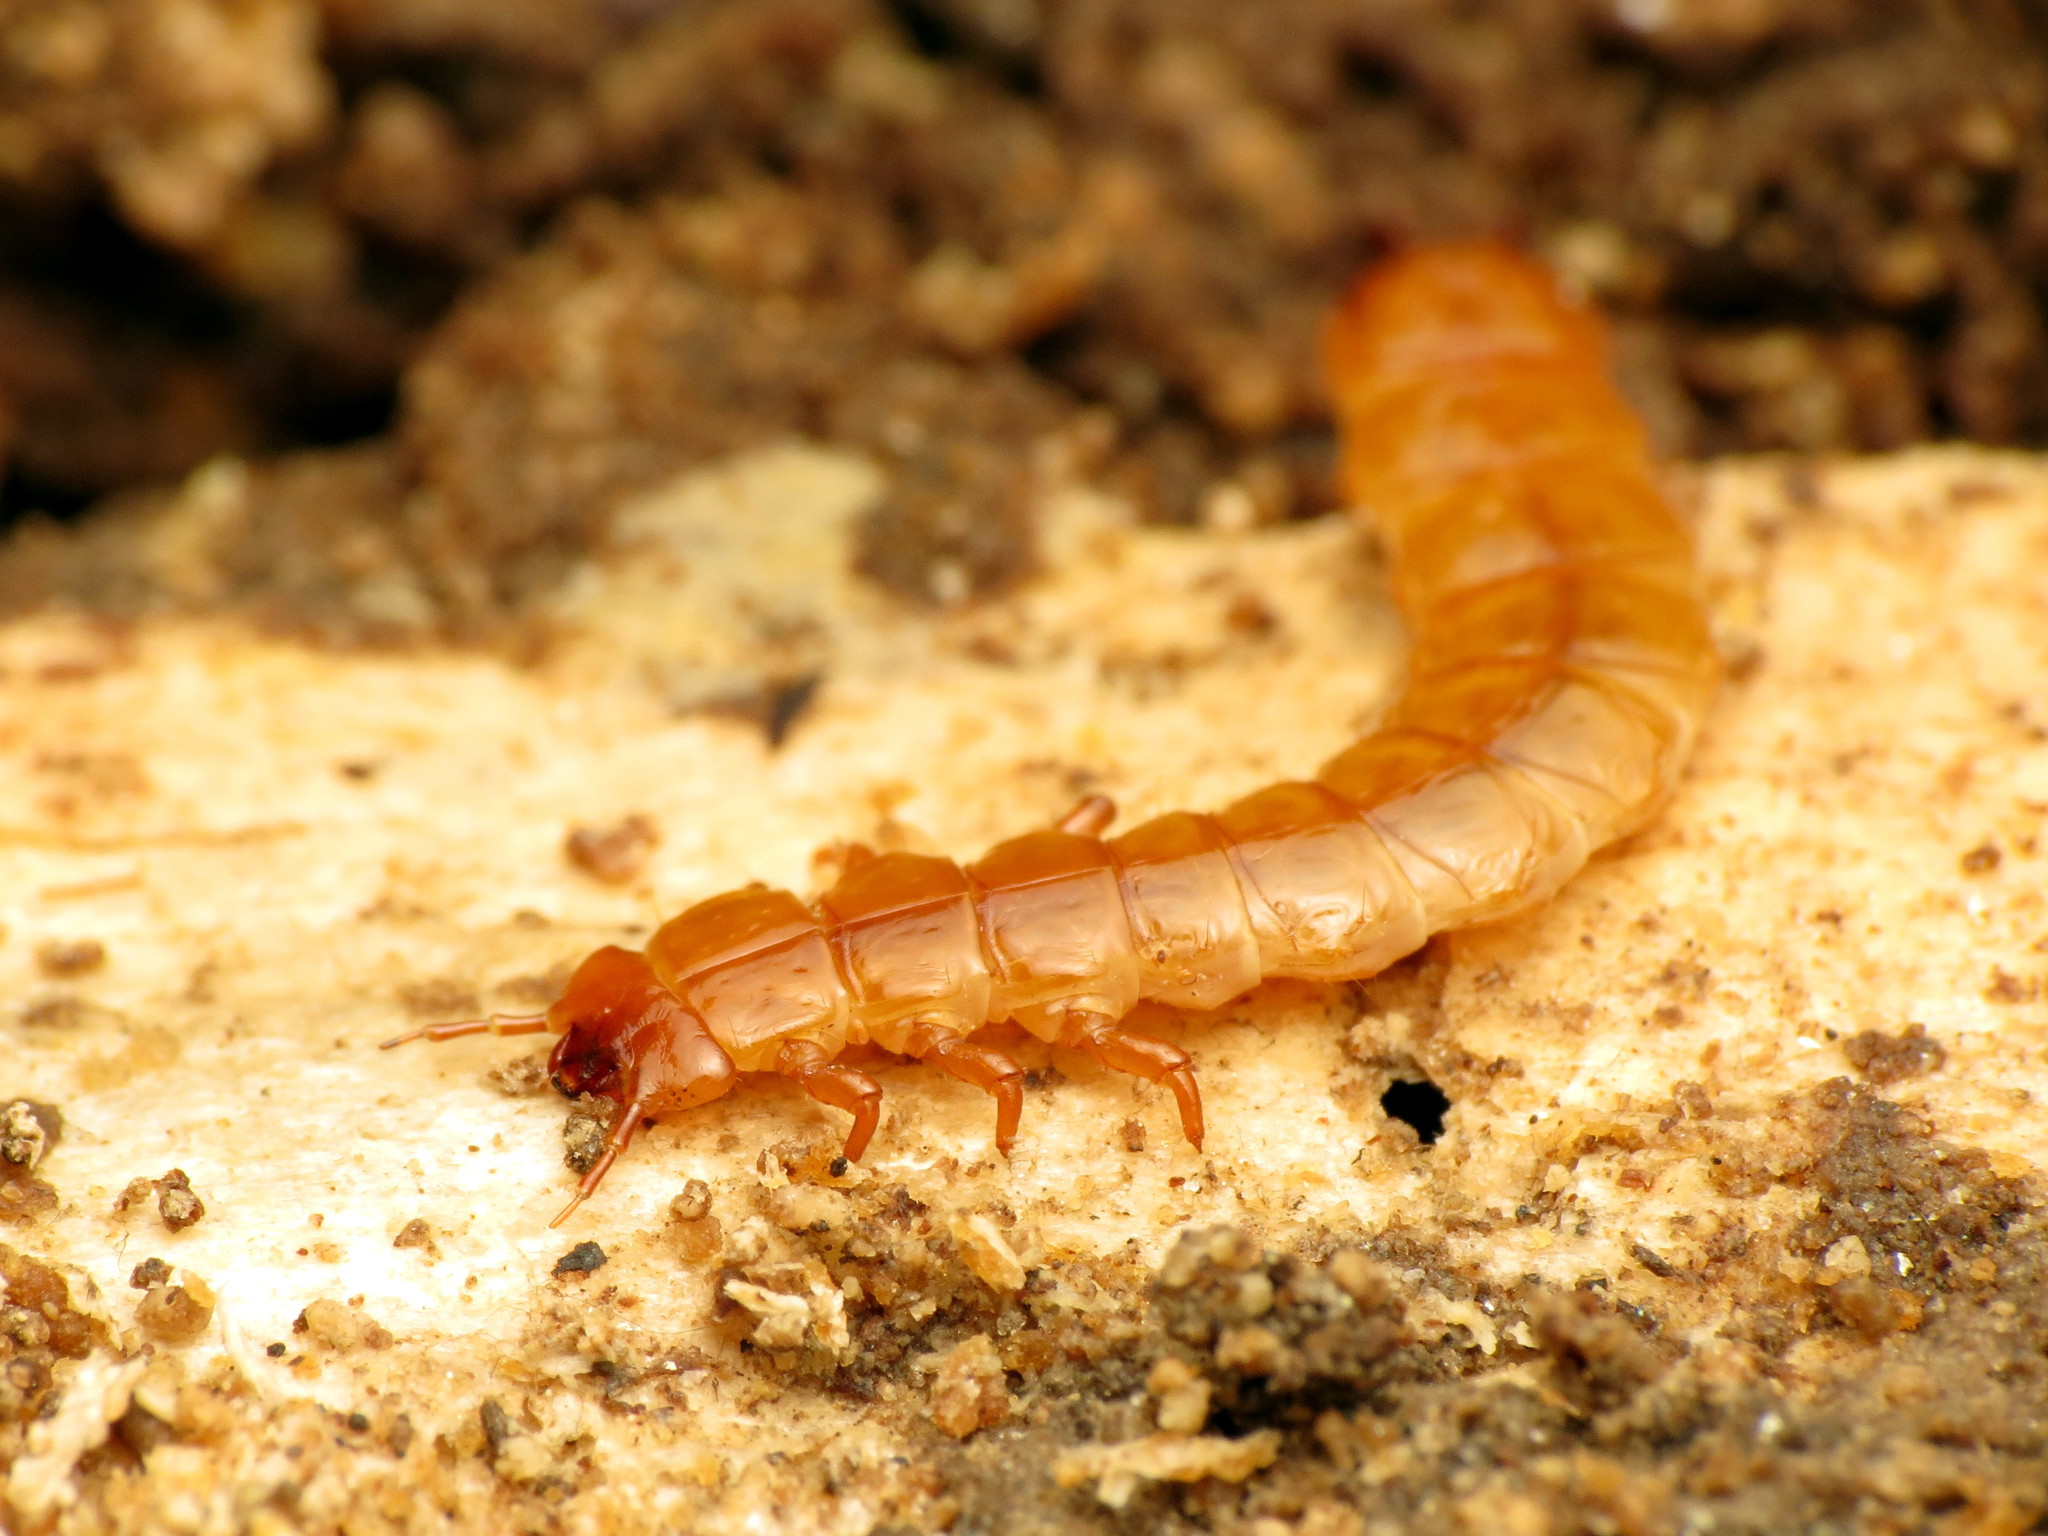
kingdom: Animalia
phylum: Arthropoda
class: Insecta
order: Coleoptera
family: Cucujidae
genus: Cucujus
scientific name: Cucujus clavipes
